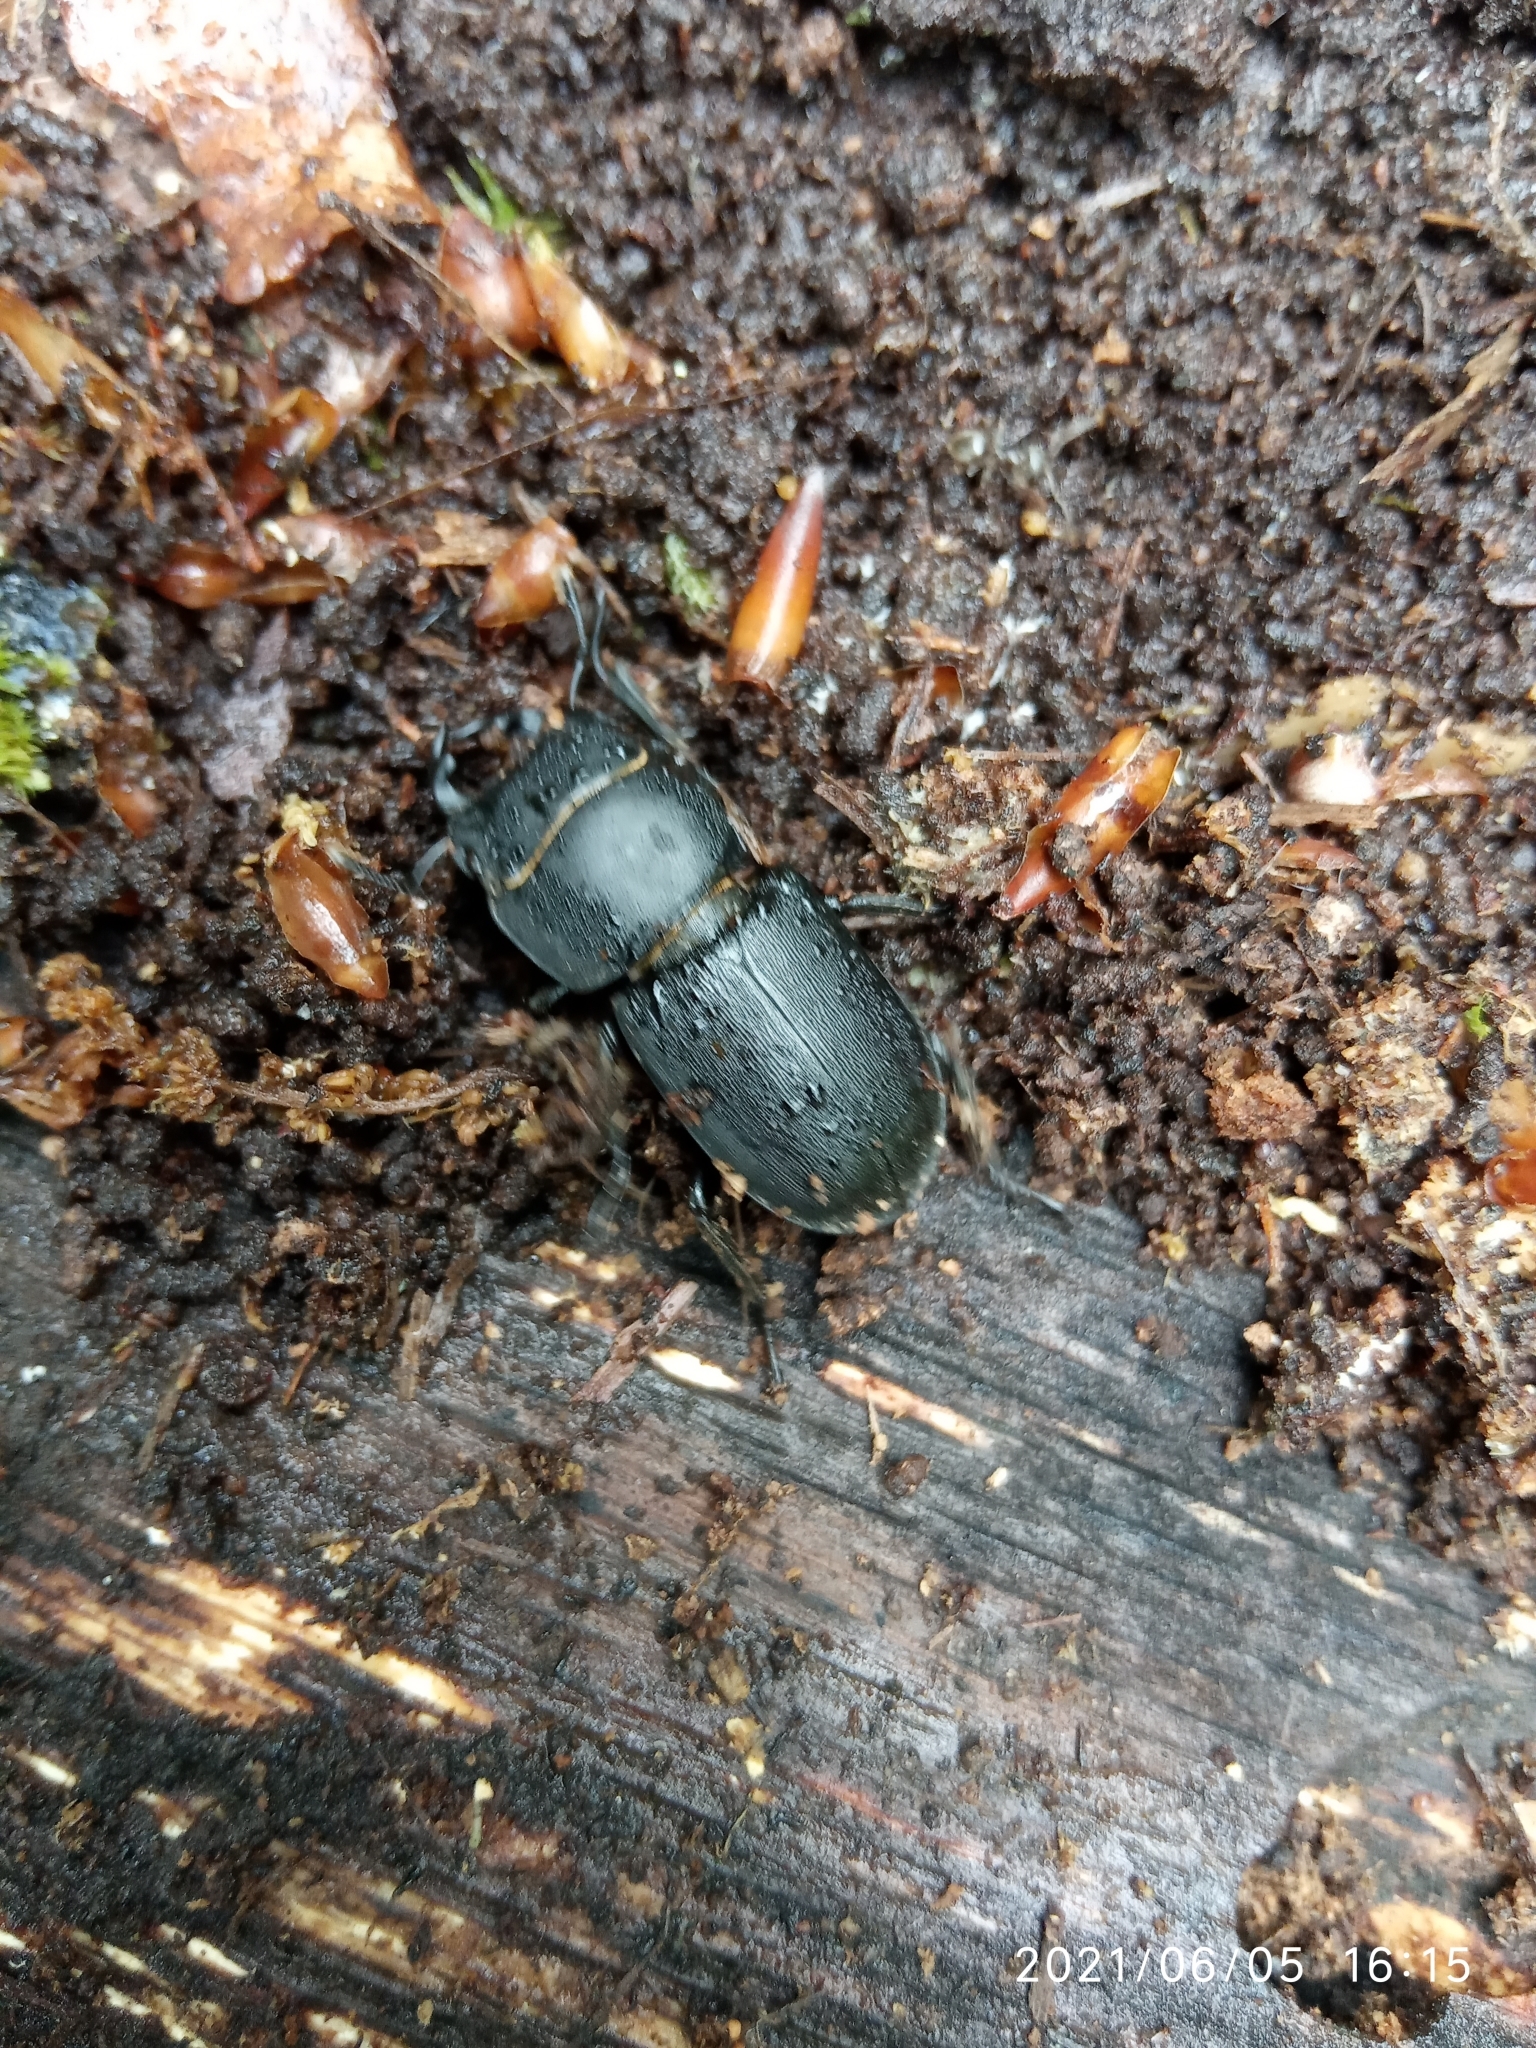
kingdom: Animalia
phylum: Arthropoda
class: Insecta
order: Coleoptera
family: Lucanidae
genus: Dorcus
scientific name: Dorcus parallelipipedus
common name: Lesser stag beetle
